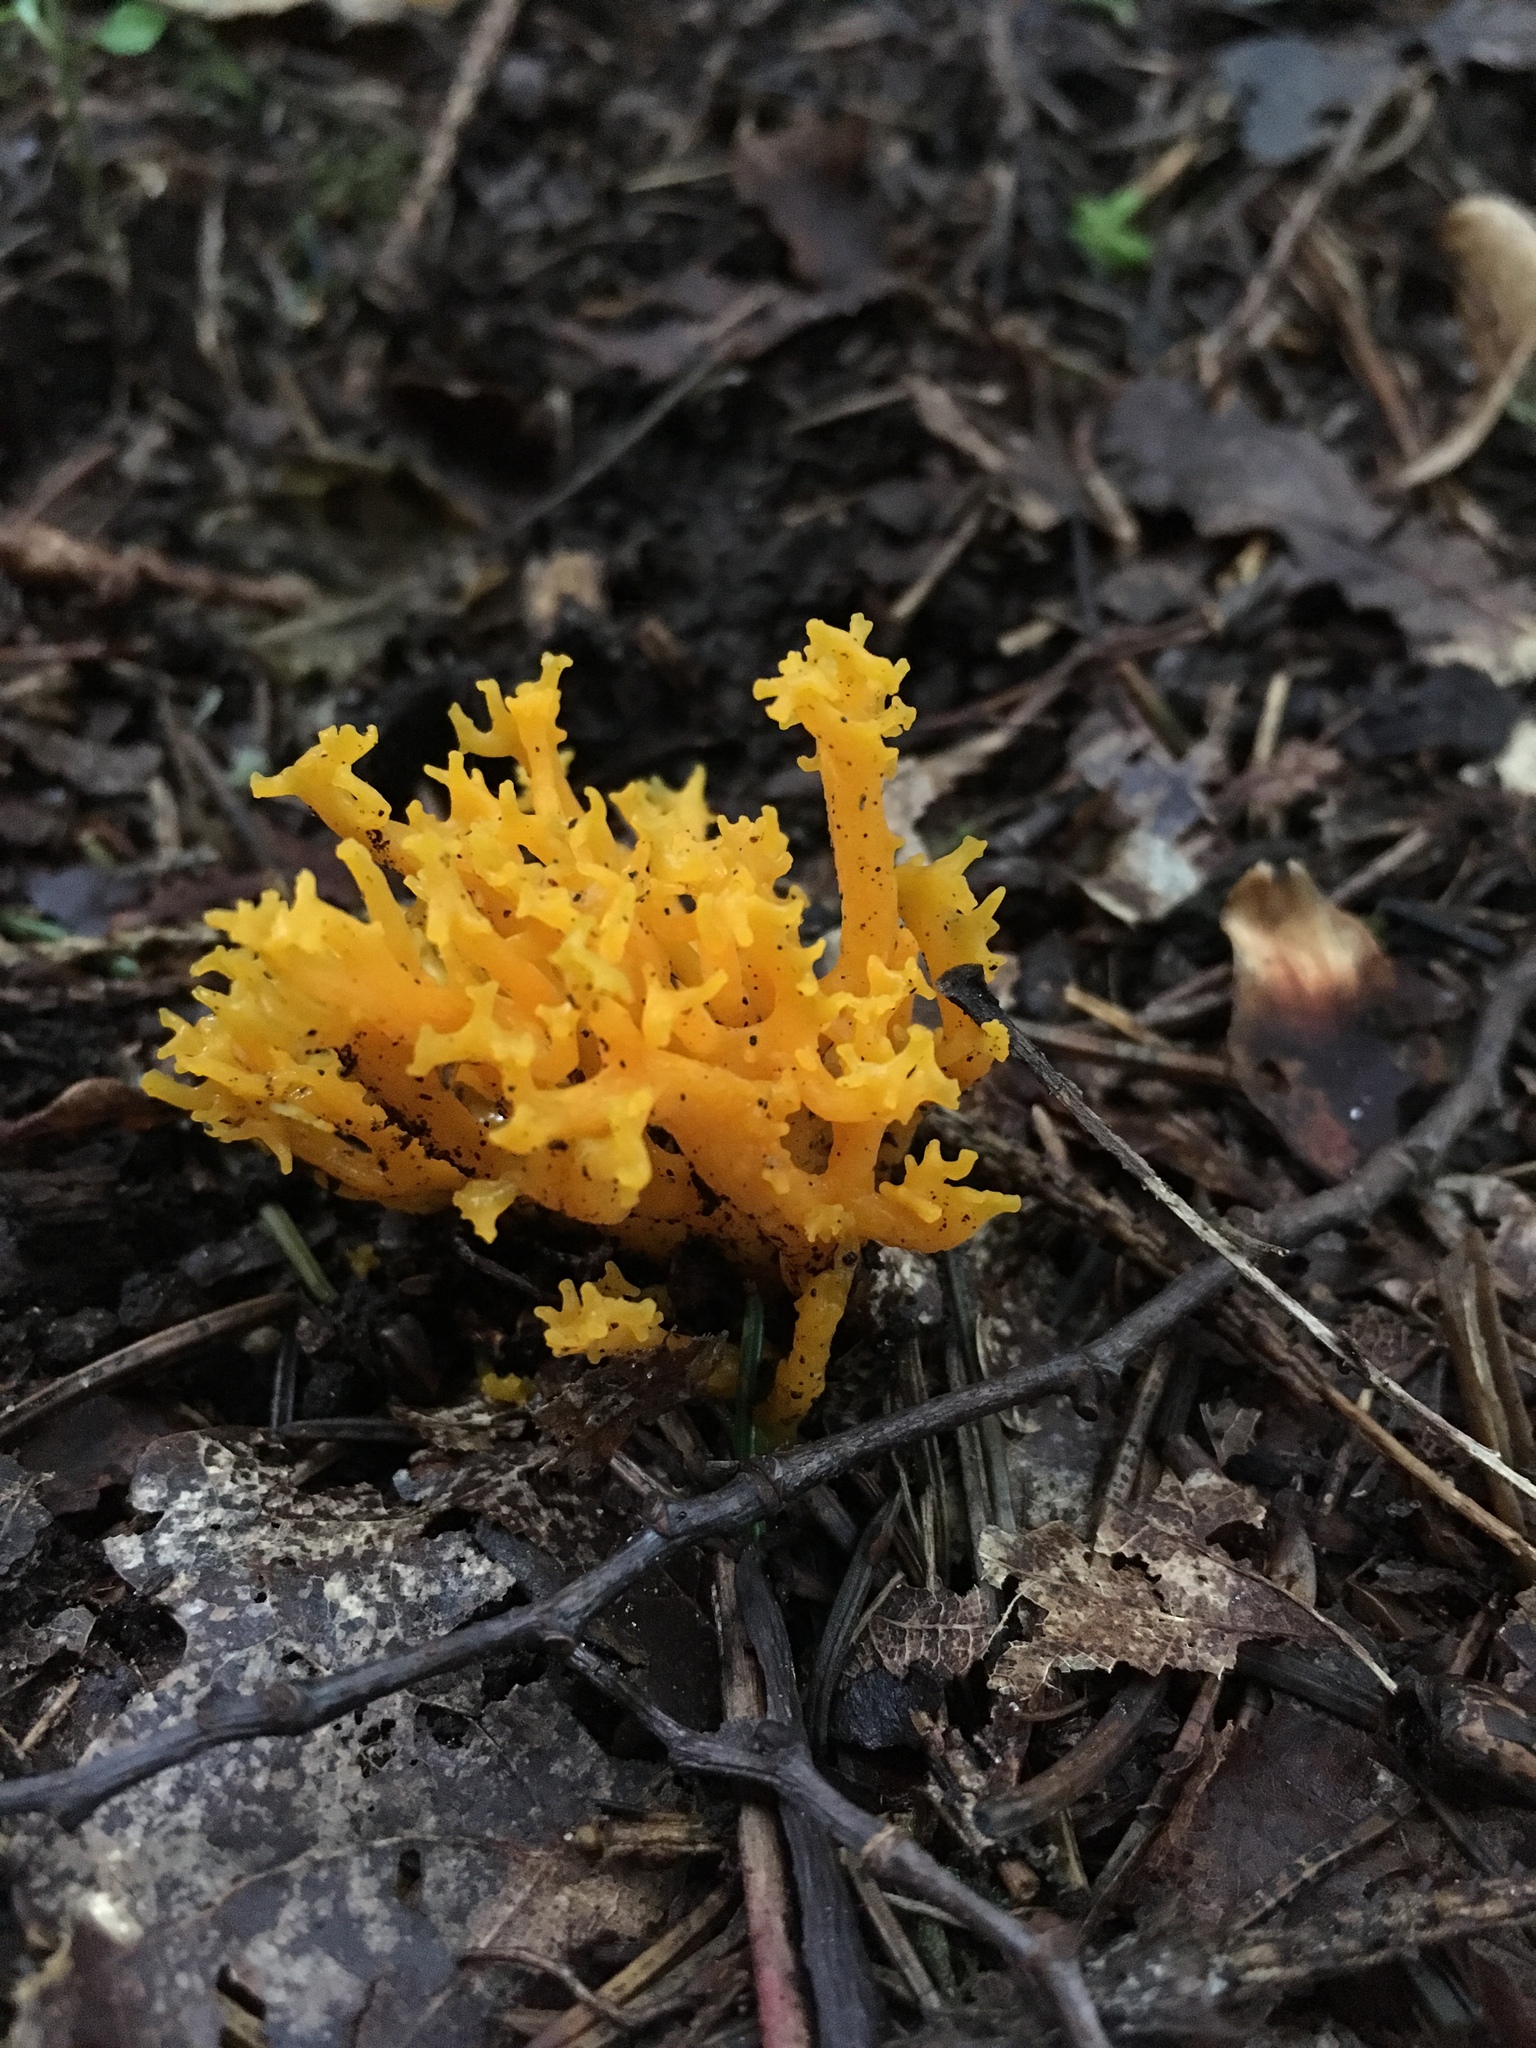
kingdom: Fungi
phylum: Basidiomycota
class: Dacrymycetes
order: Dacrymycetales
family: Dacrymycetaceae
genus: Calocera
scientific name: Calocera viscosa
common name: Yellow stagshorn
